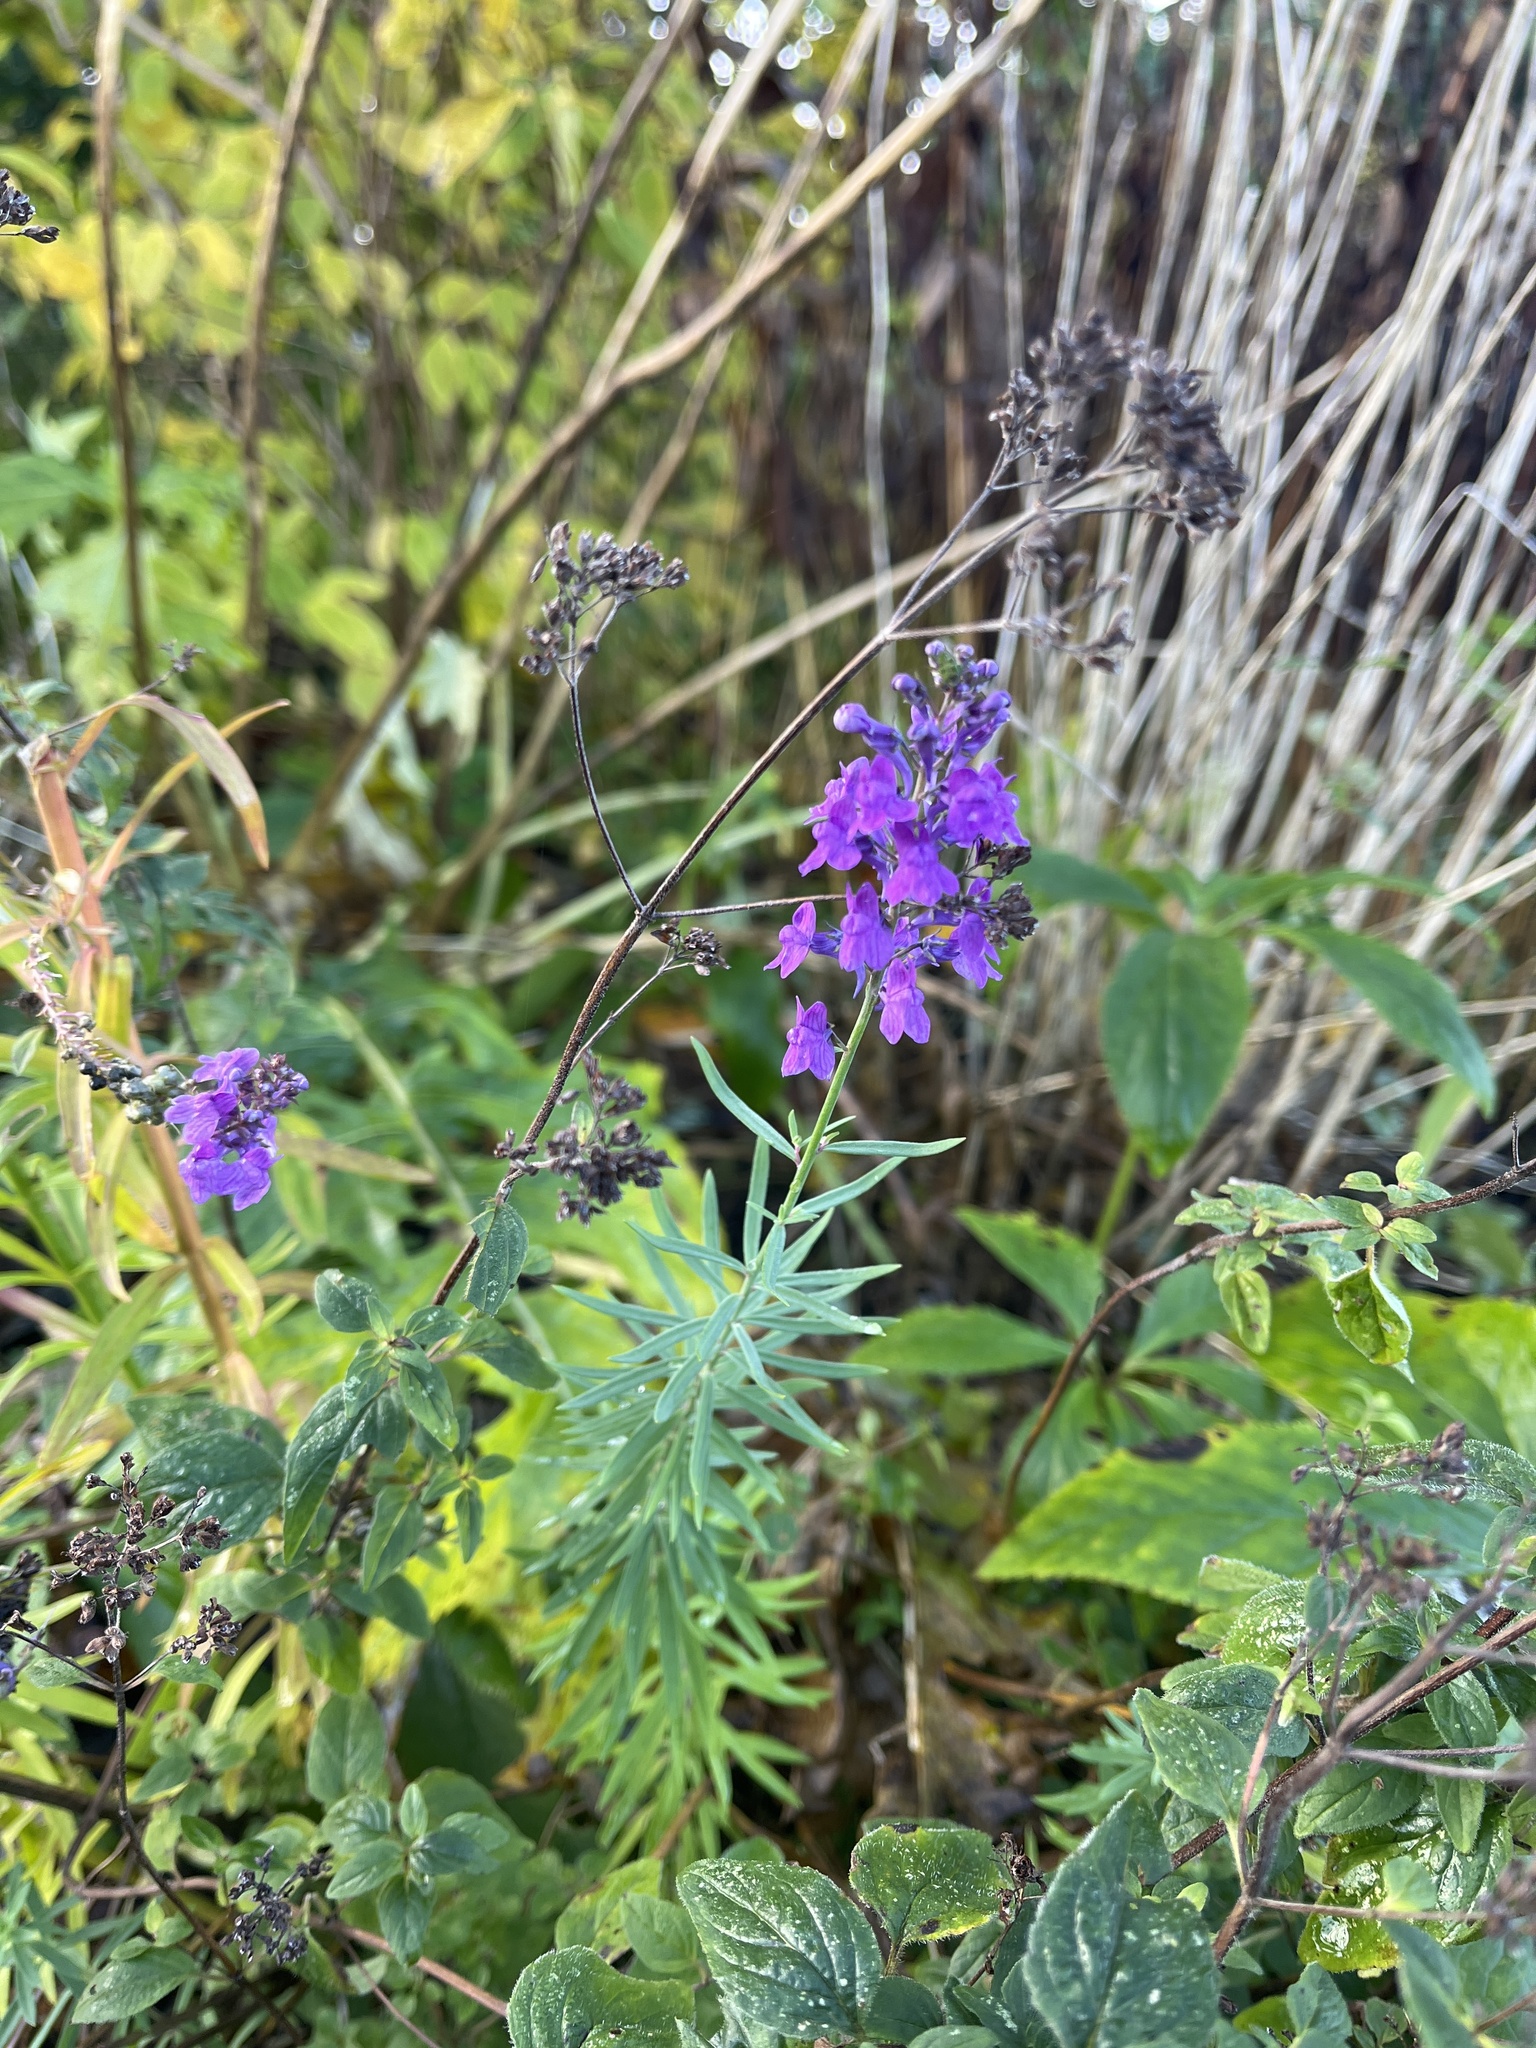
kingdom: Plantae
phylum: Tracheophyta
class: Magnoliopsida
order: Lamiales
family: Plantaginaceae
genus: Linaria
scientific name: Linaria purpurea
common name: Purple toadflax
